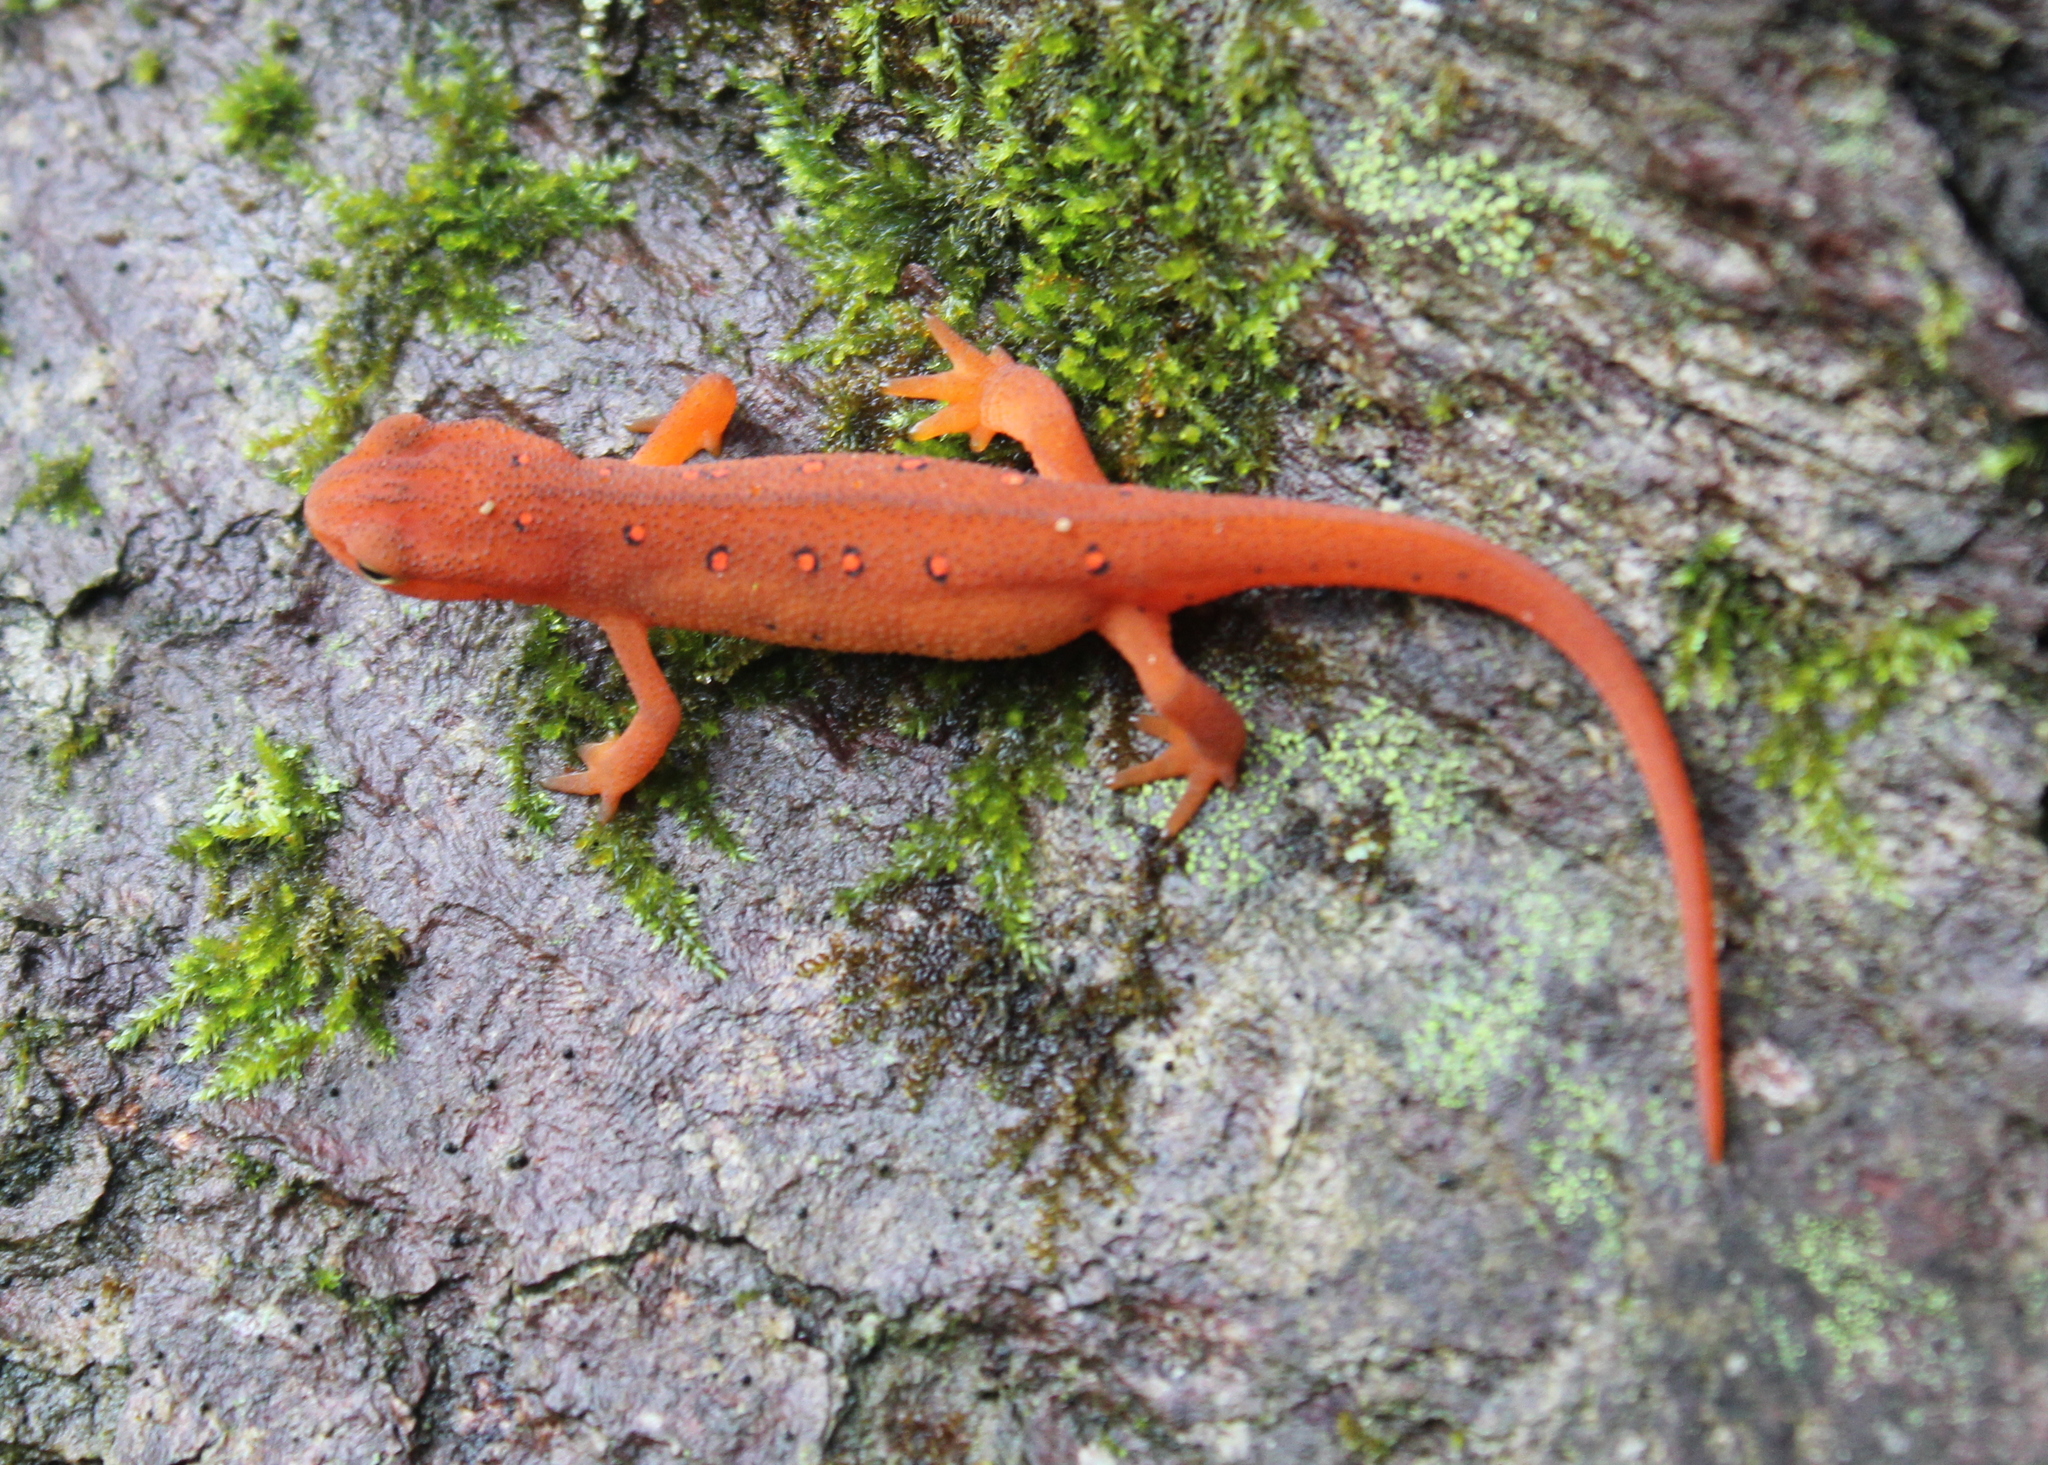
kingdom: Animalia
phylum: Chordata
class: Amphibia
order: Caudata
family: Salamandridae
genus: Notophthalmus
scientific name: Notophthalmus viridescens
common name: Eastern newt
